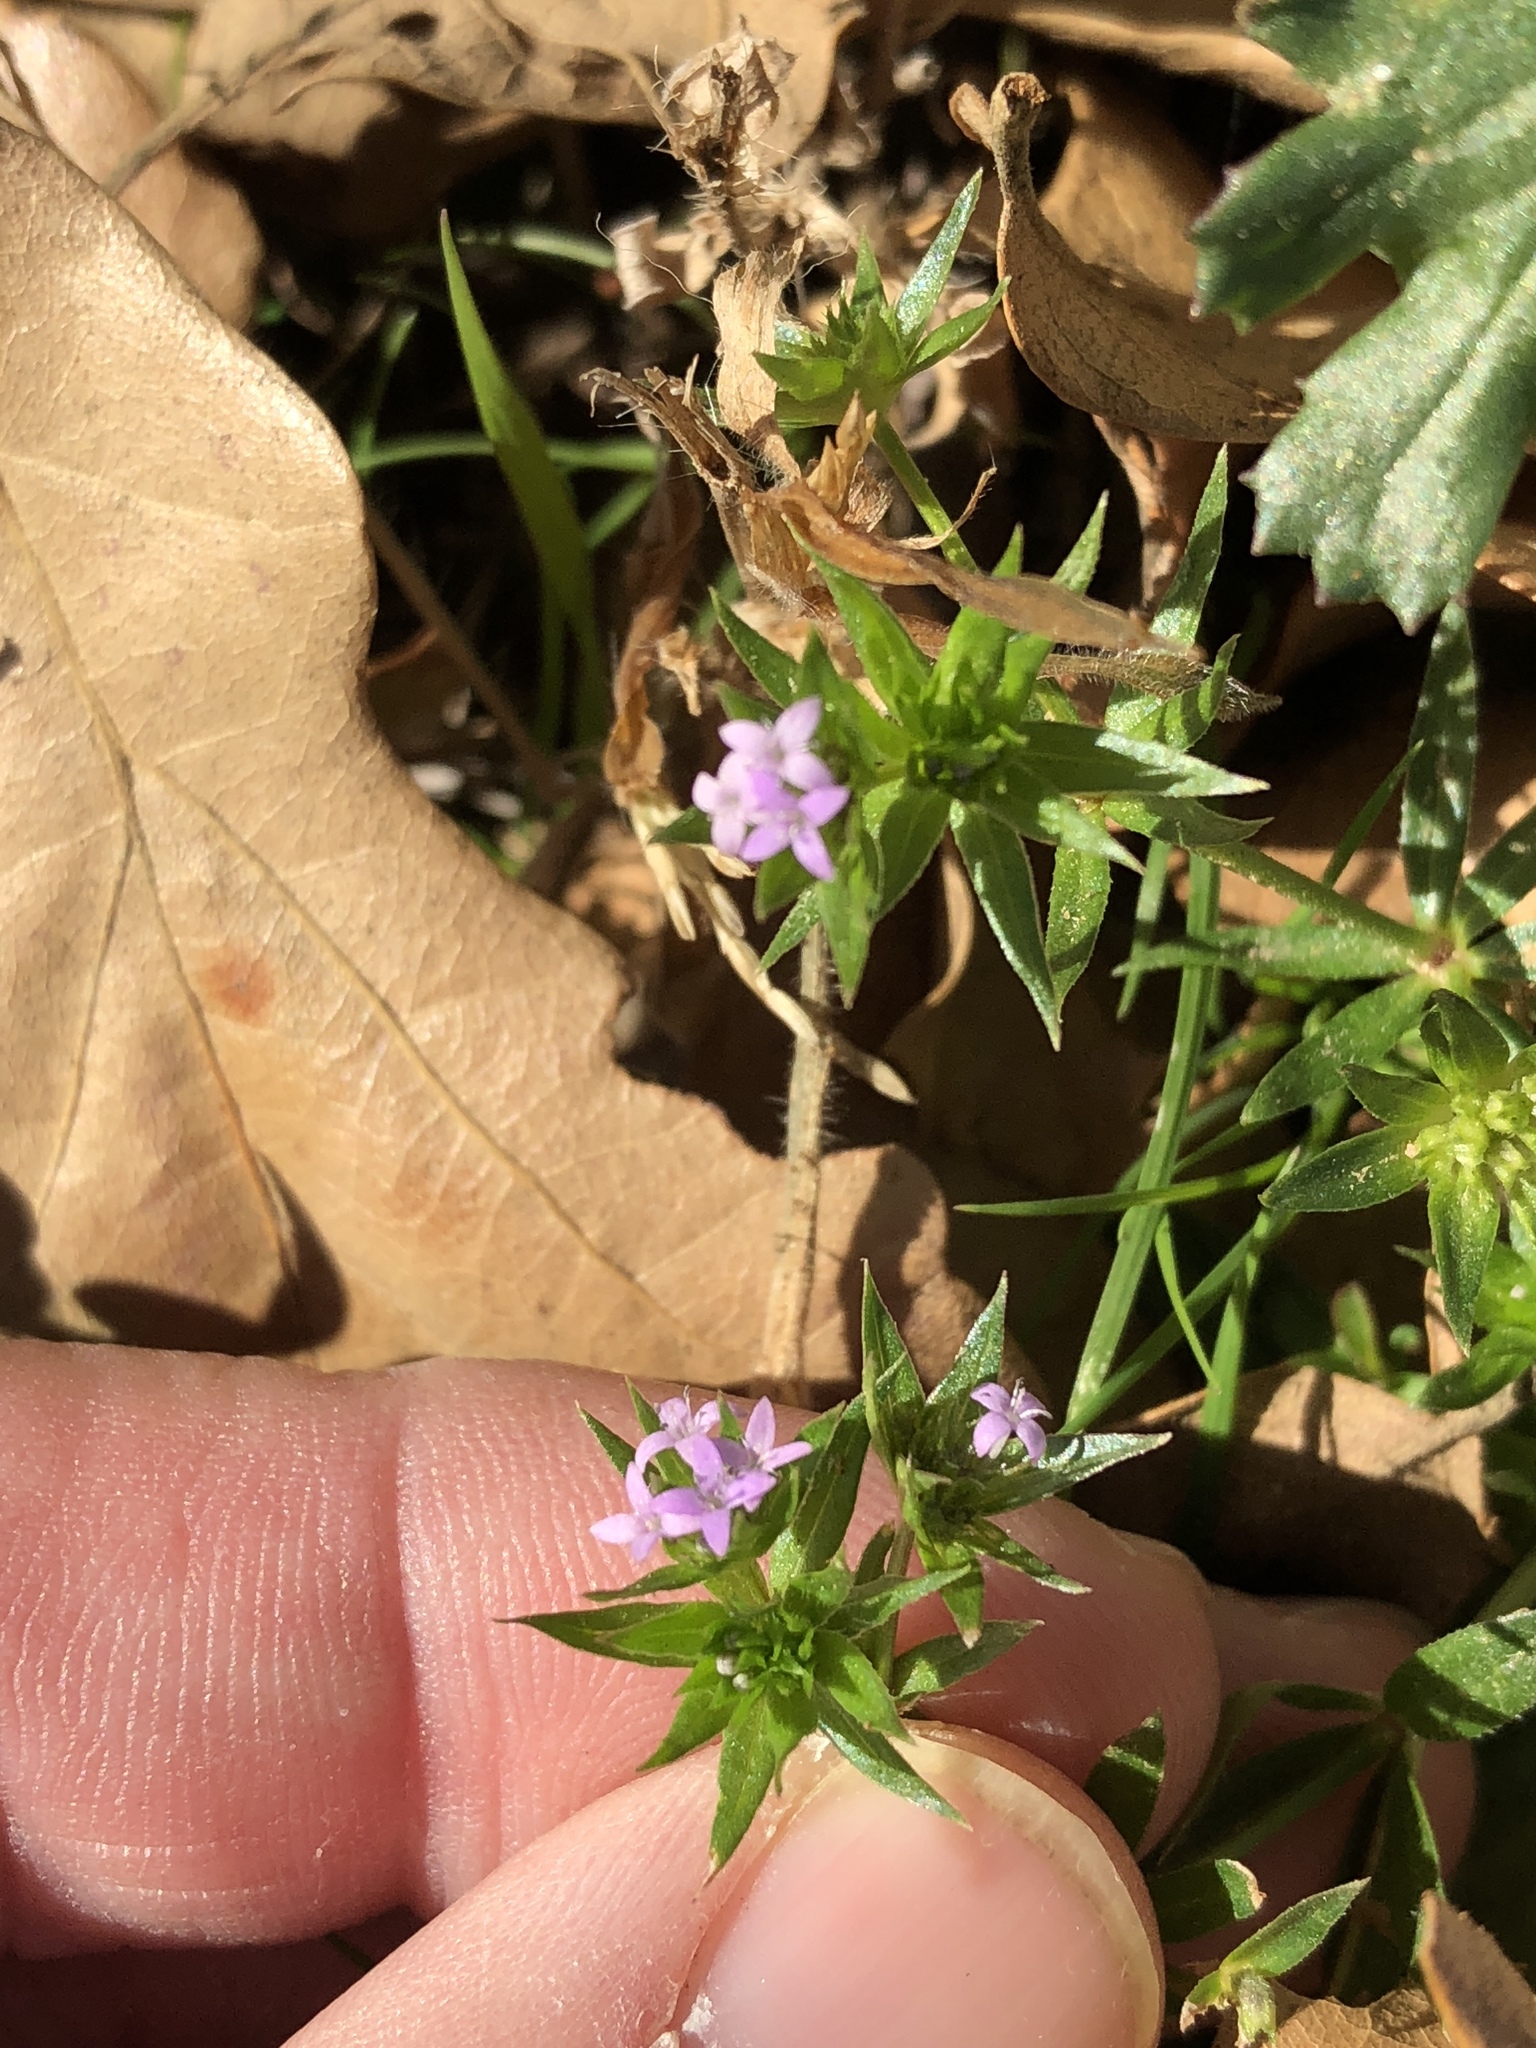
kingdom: Plantae
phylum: Tracheophyta
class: Magnoliopsida
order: Gentianales
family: Rubiaceae
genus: Sherardia
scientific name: Sherardia arvensis
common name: Field madder
